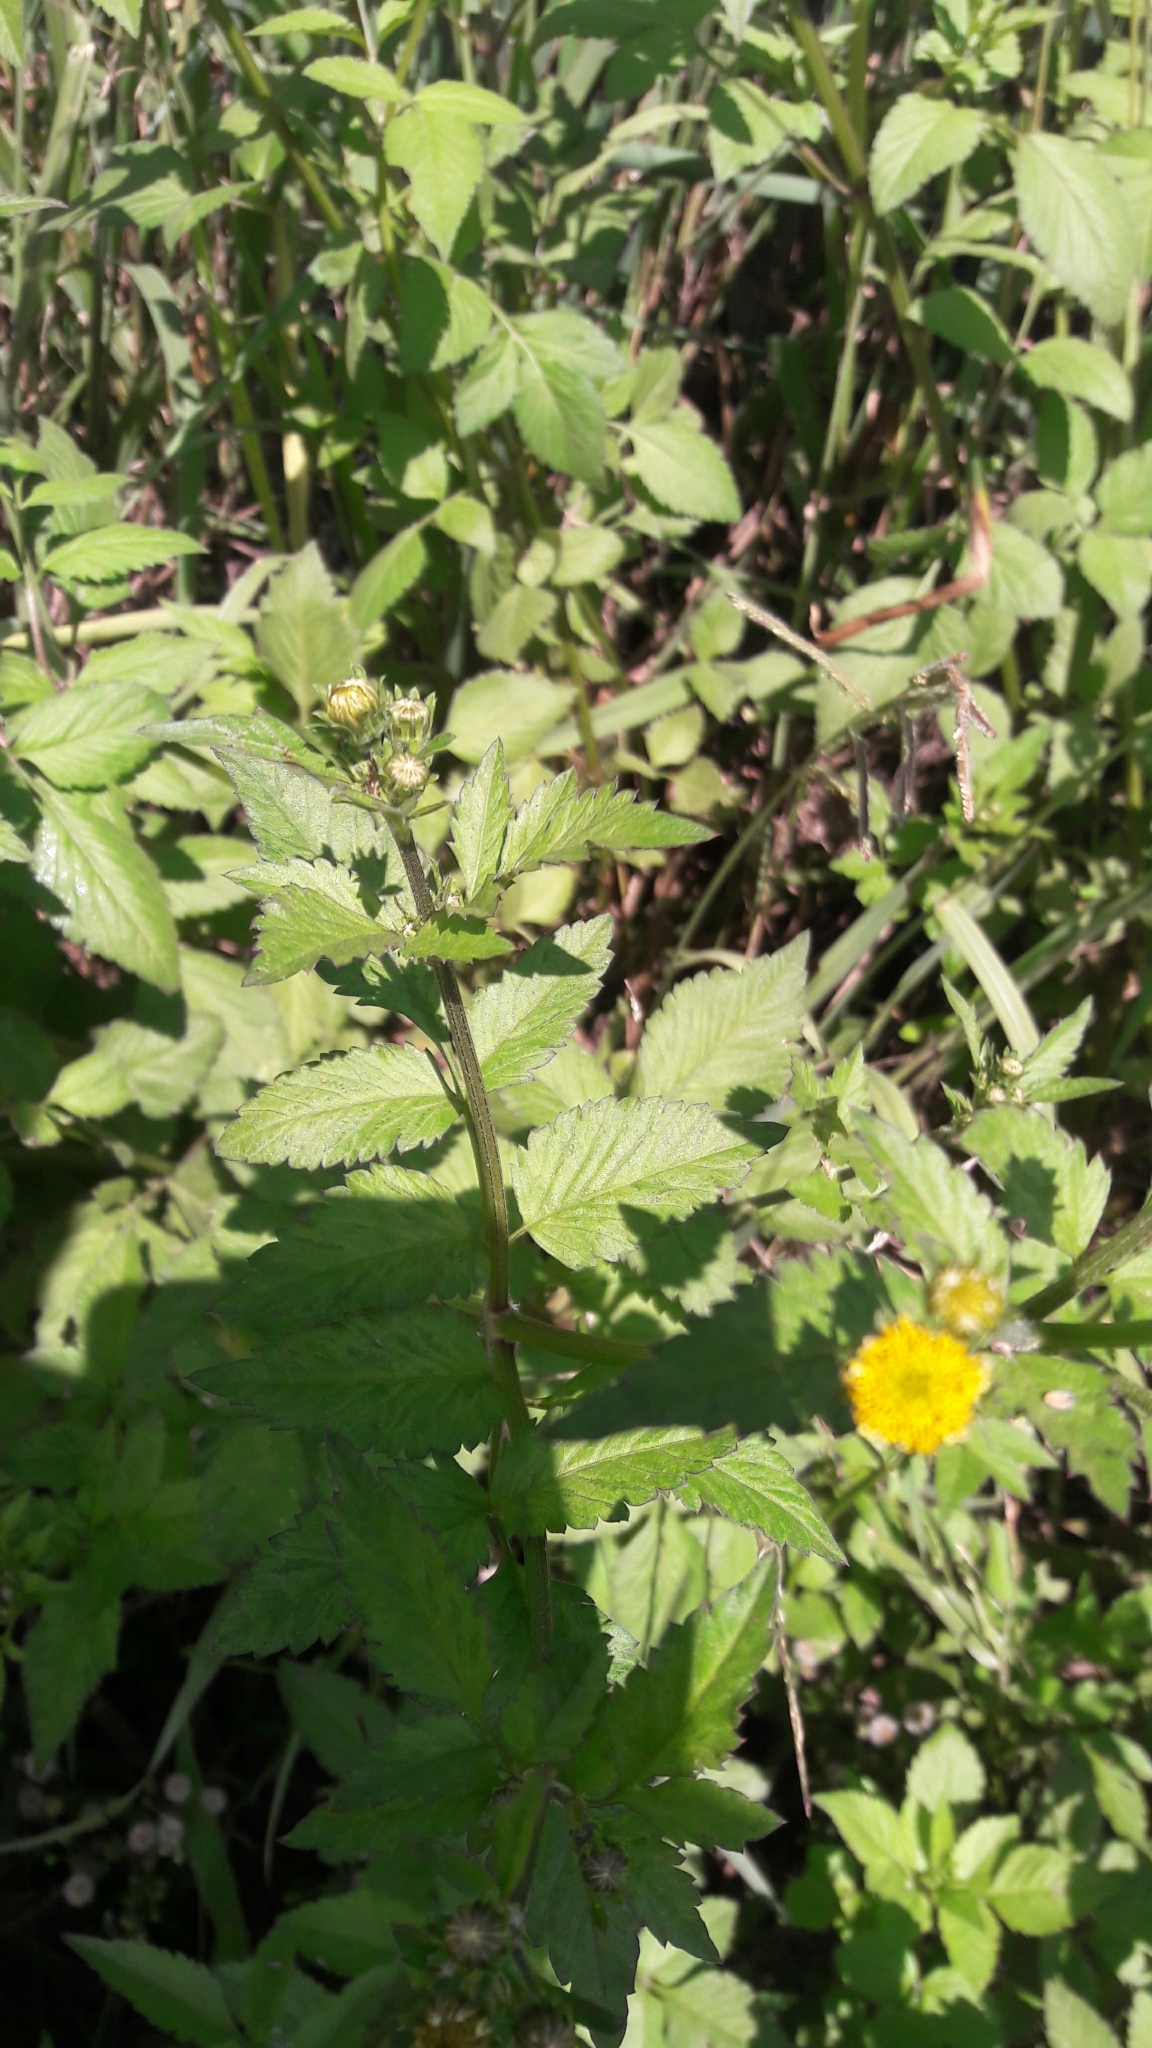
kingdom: Plantae
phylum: Tracheophyta
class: Magnoliopsida
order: Asterales
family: Asteraceae
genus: Bidens
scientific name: Bidens pilosa
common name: Black-jack
